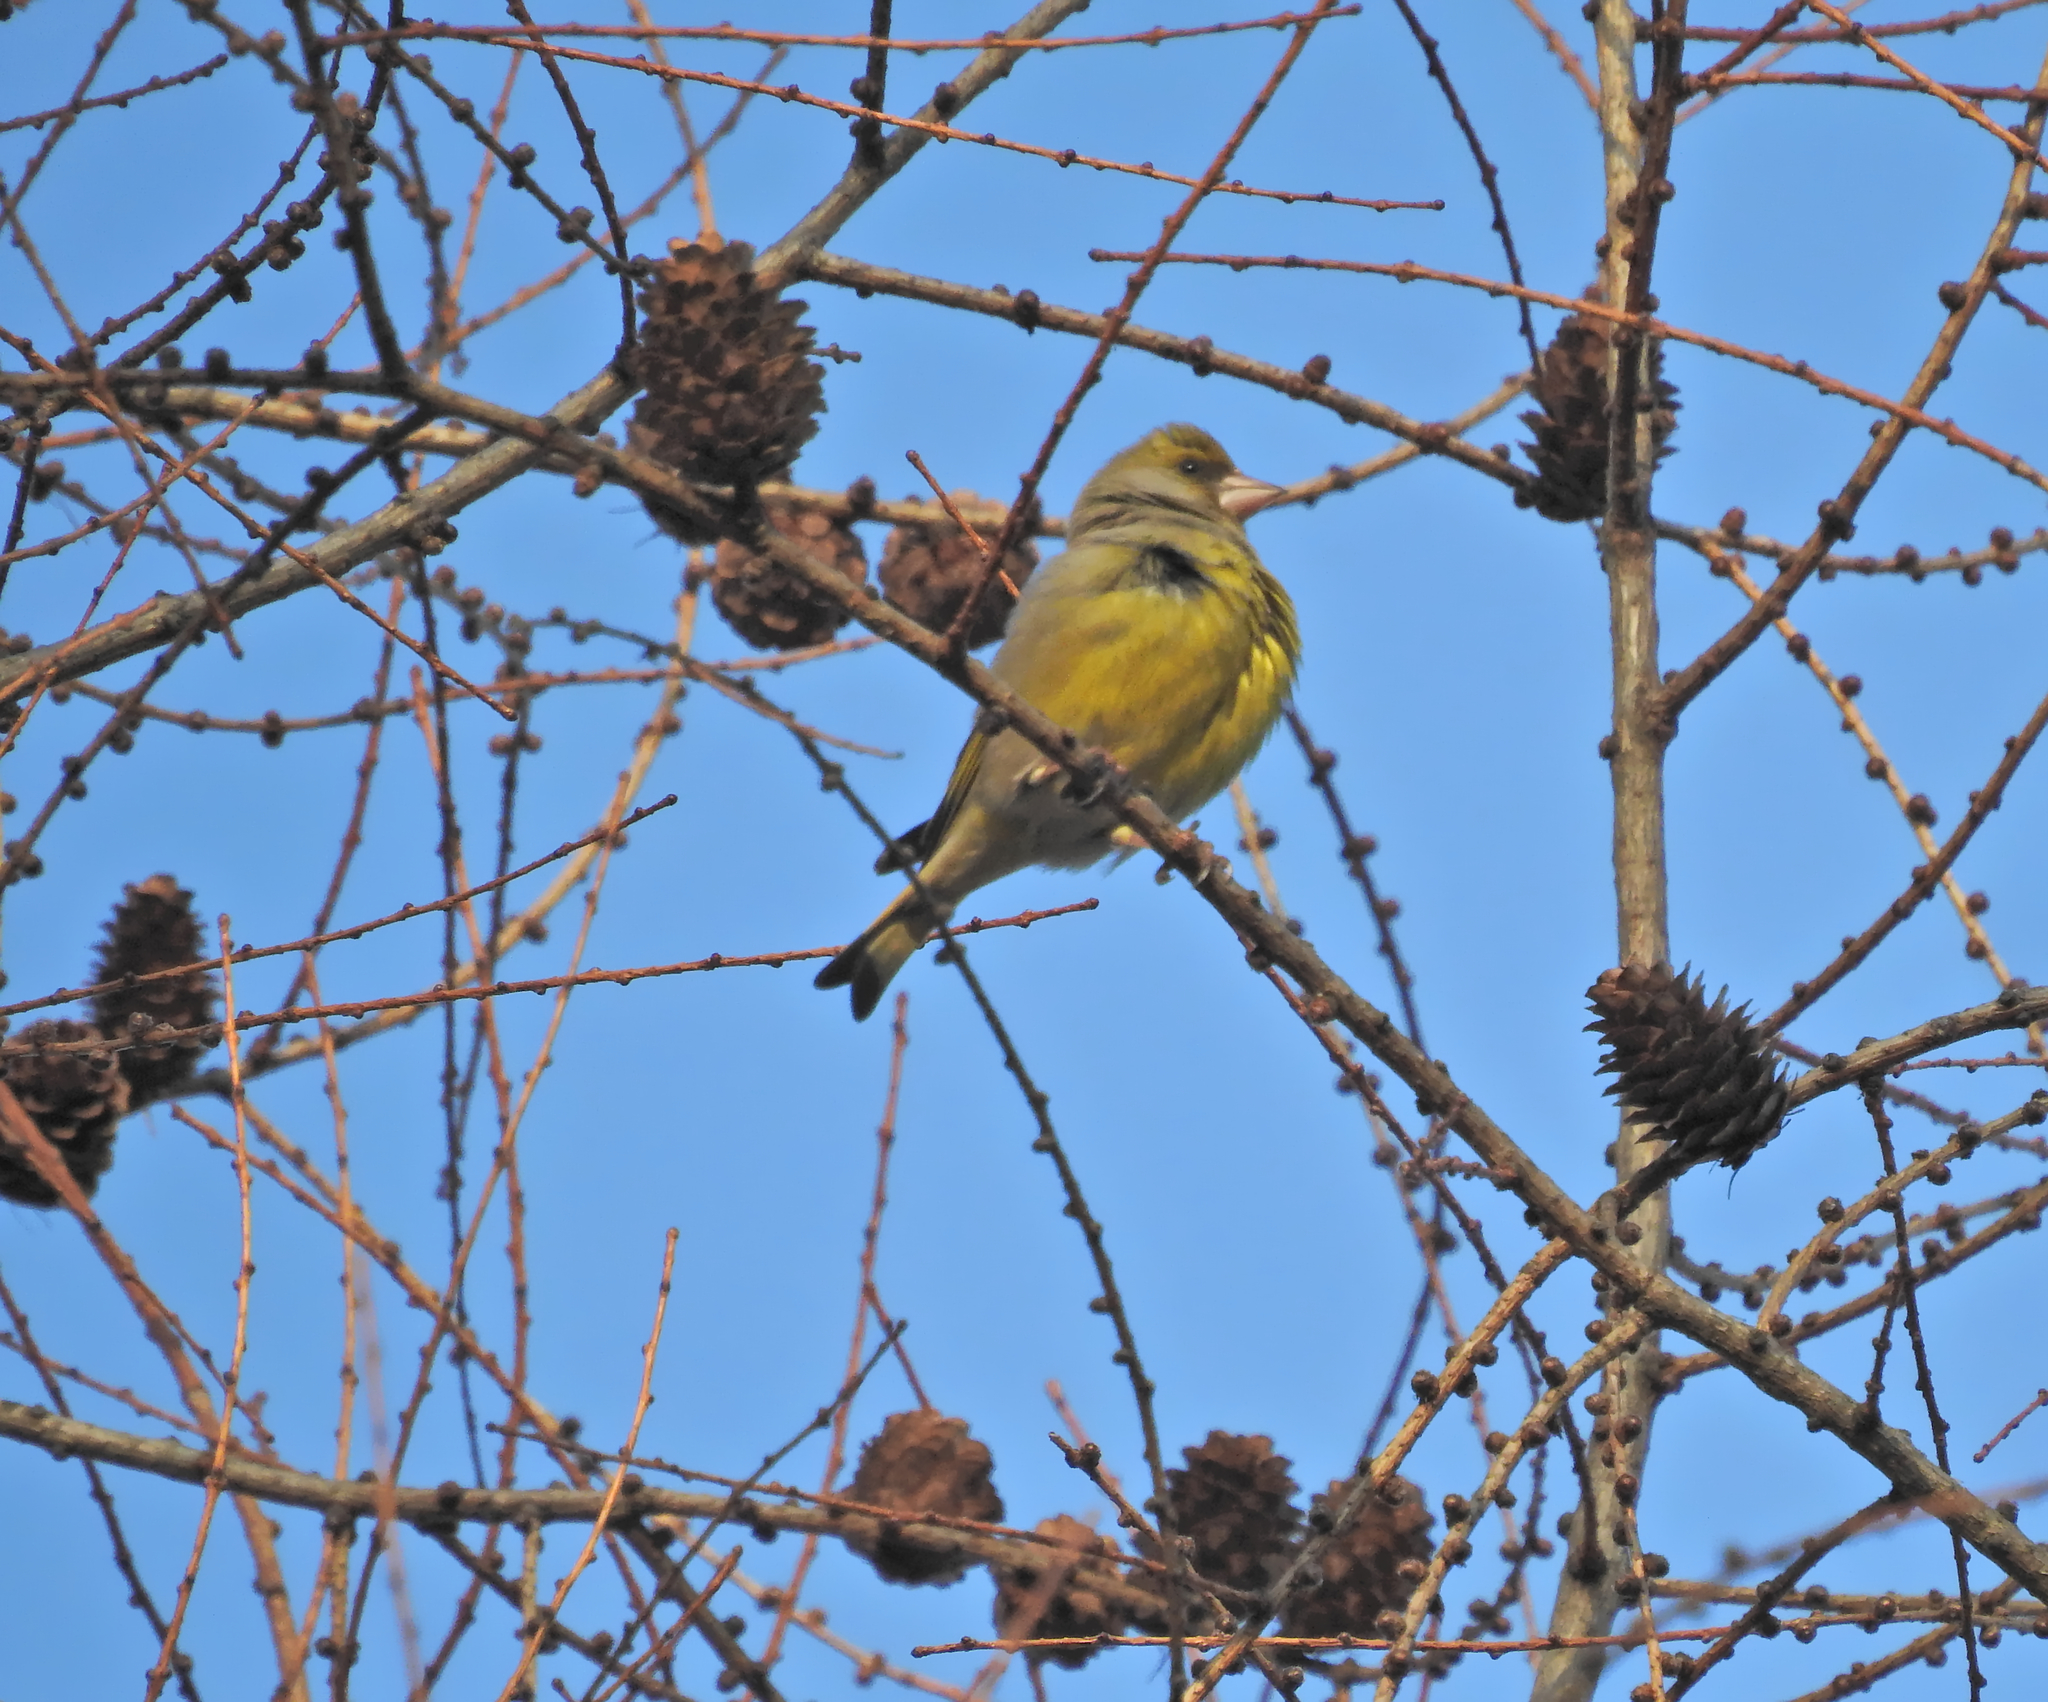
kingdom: Plantae
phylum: Tracheophyta
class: Liliopsida
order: Poales
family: Poaceae
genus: Chloris
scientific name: Chloris chloris
